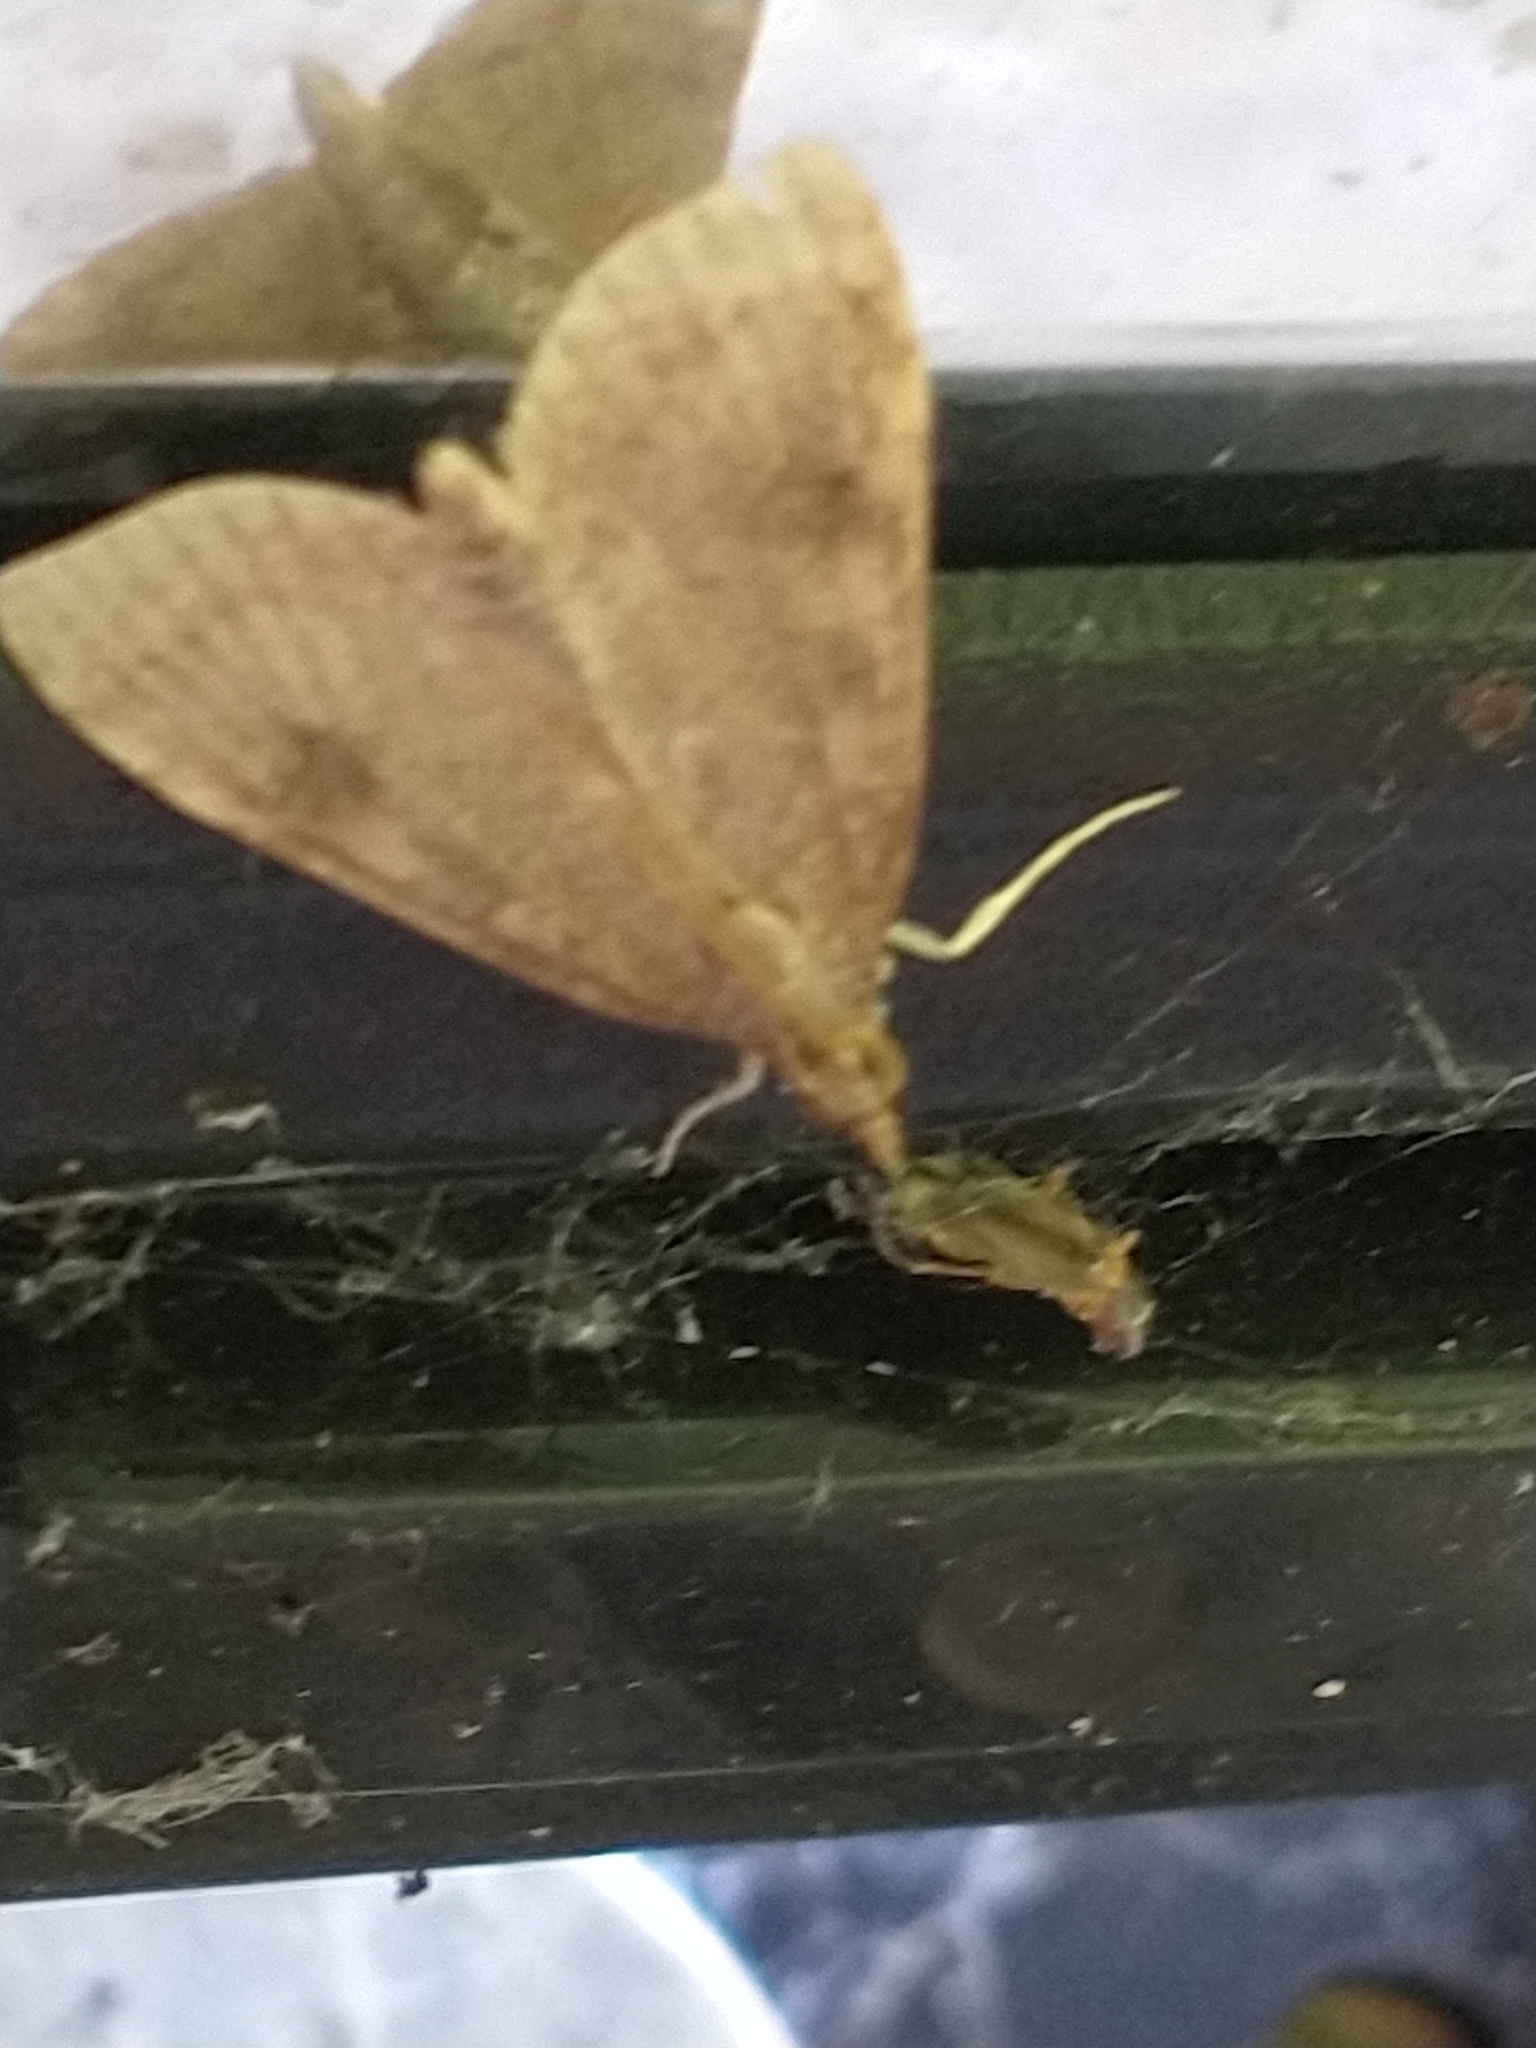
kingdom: Animalia
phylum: Arthropoda
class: Insecta
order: Lepidoptera
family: Crambidae
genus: Udea
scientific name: Udea prunalis
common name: Dusky pearl
